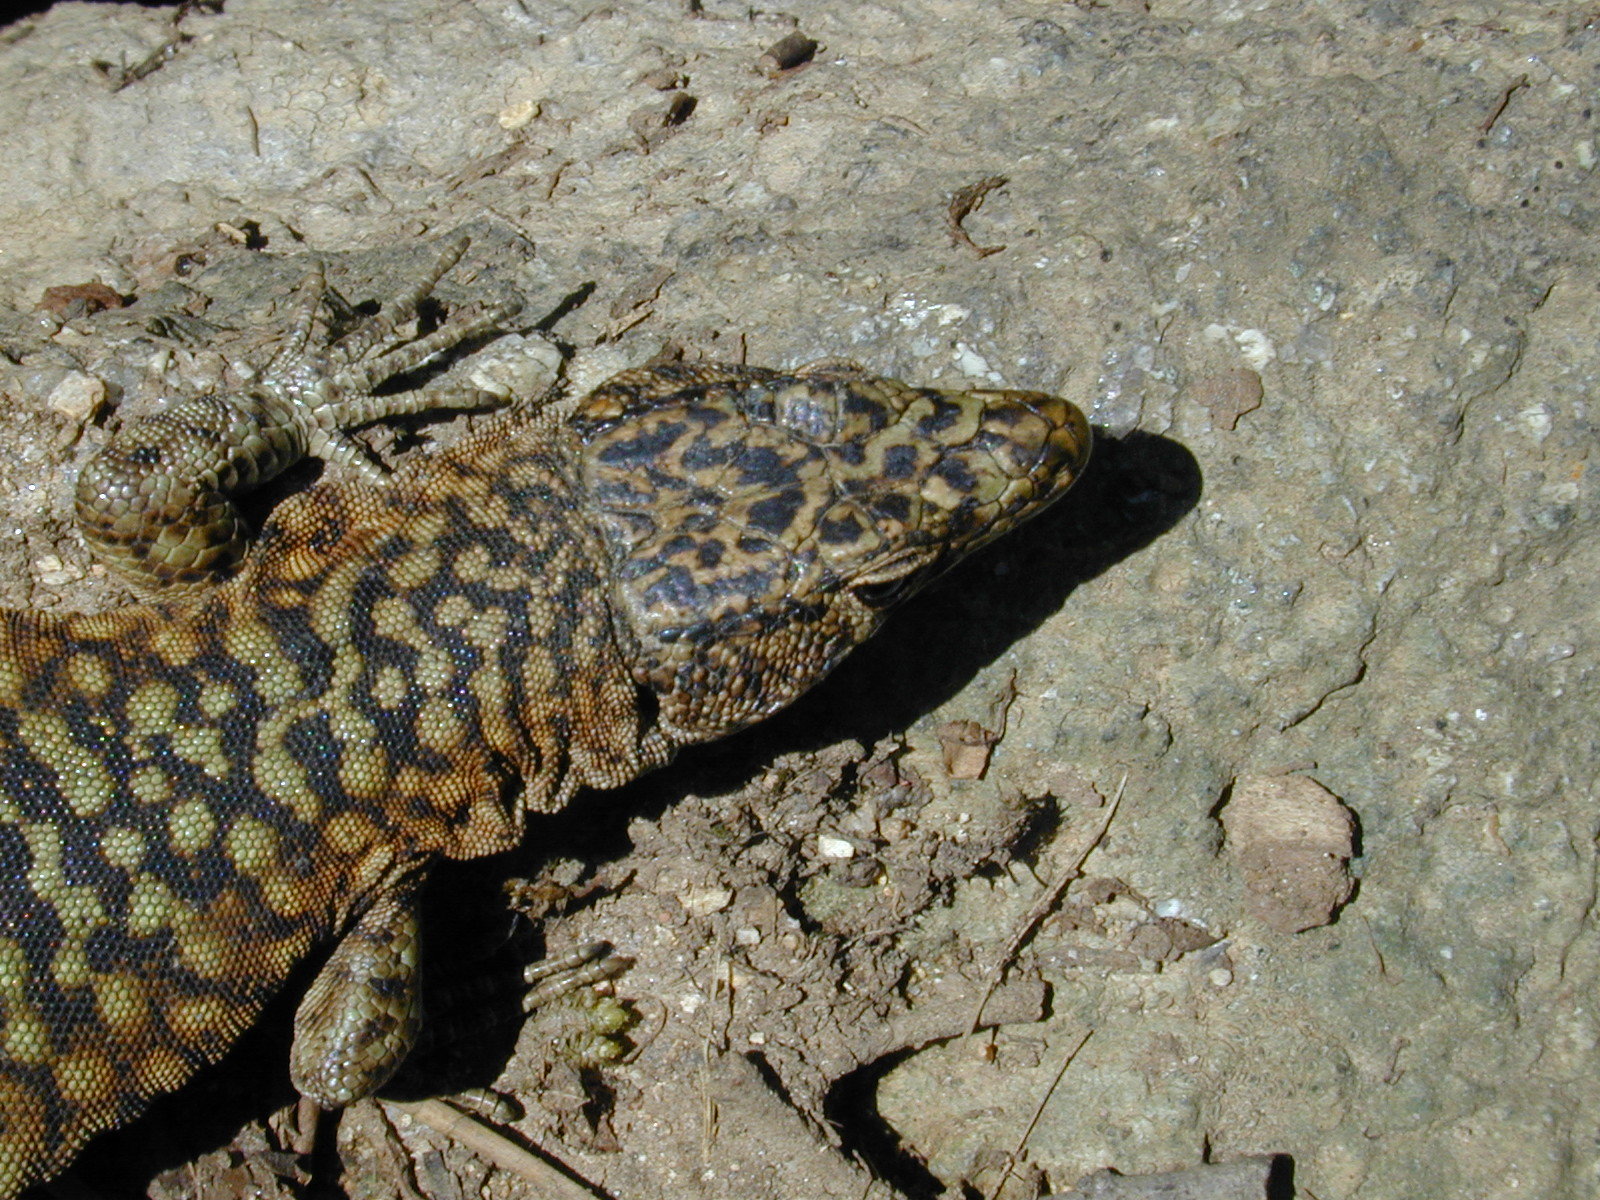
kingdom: Animalia
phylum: Chordata
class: Squamata
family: Lacertidae
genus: Archaeolacerta
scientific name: Archaeolacerta bedriagae
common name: Bedriaga's rock lizard
